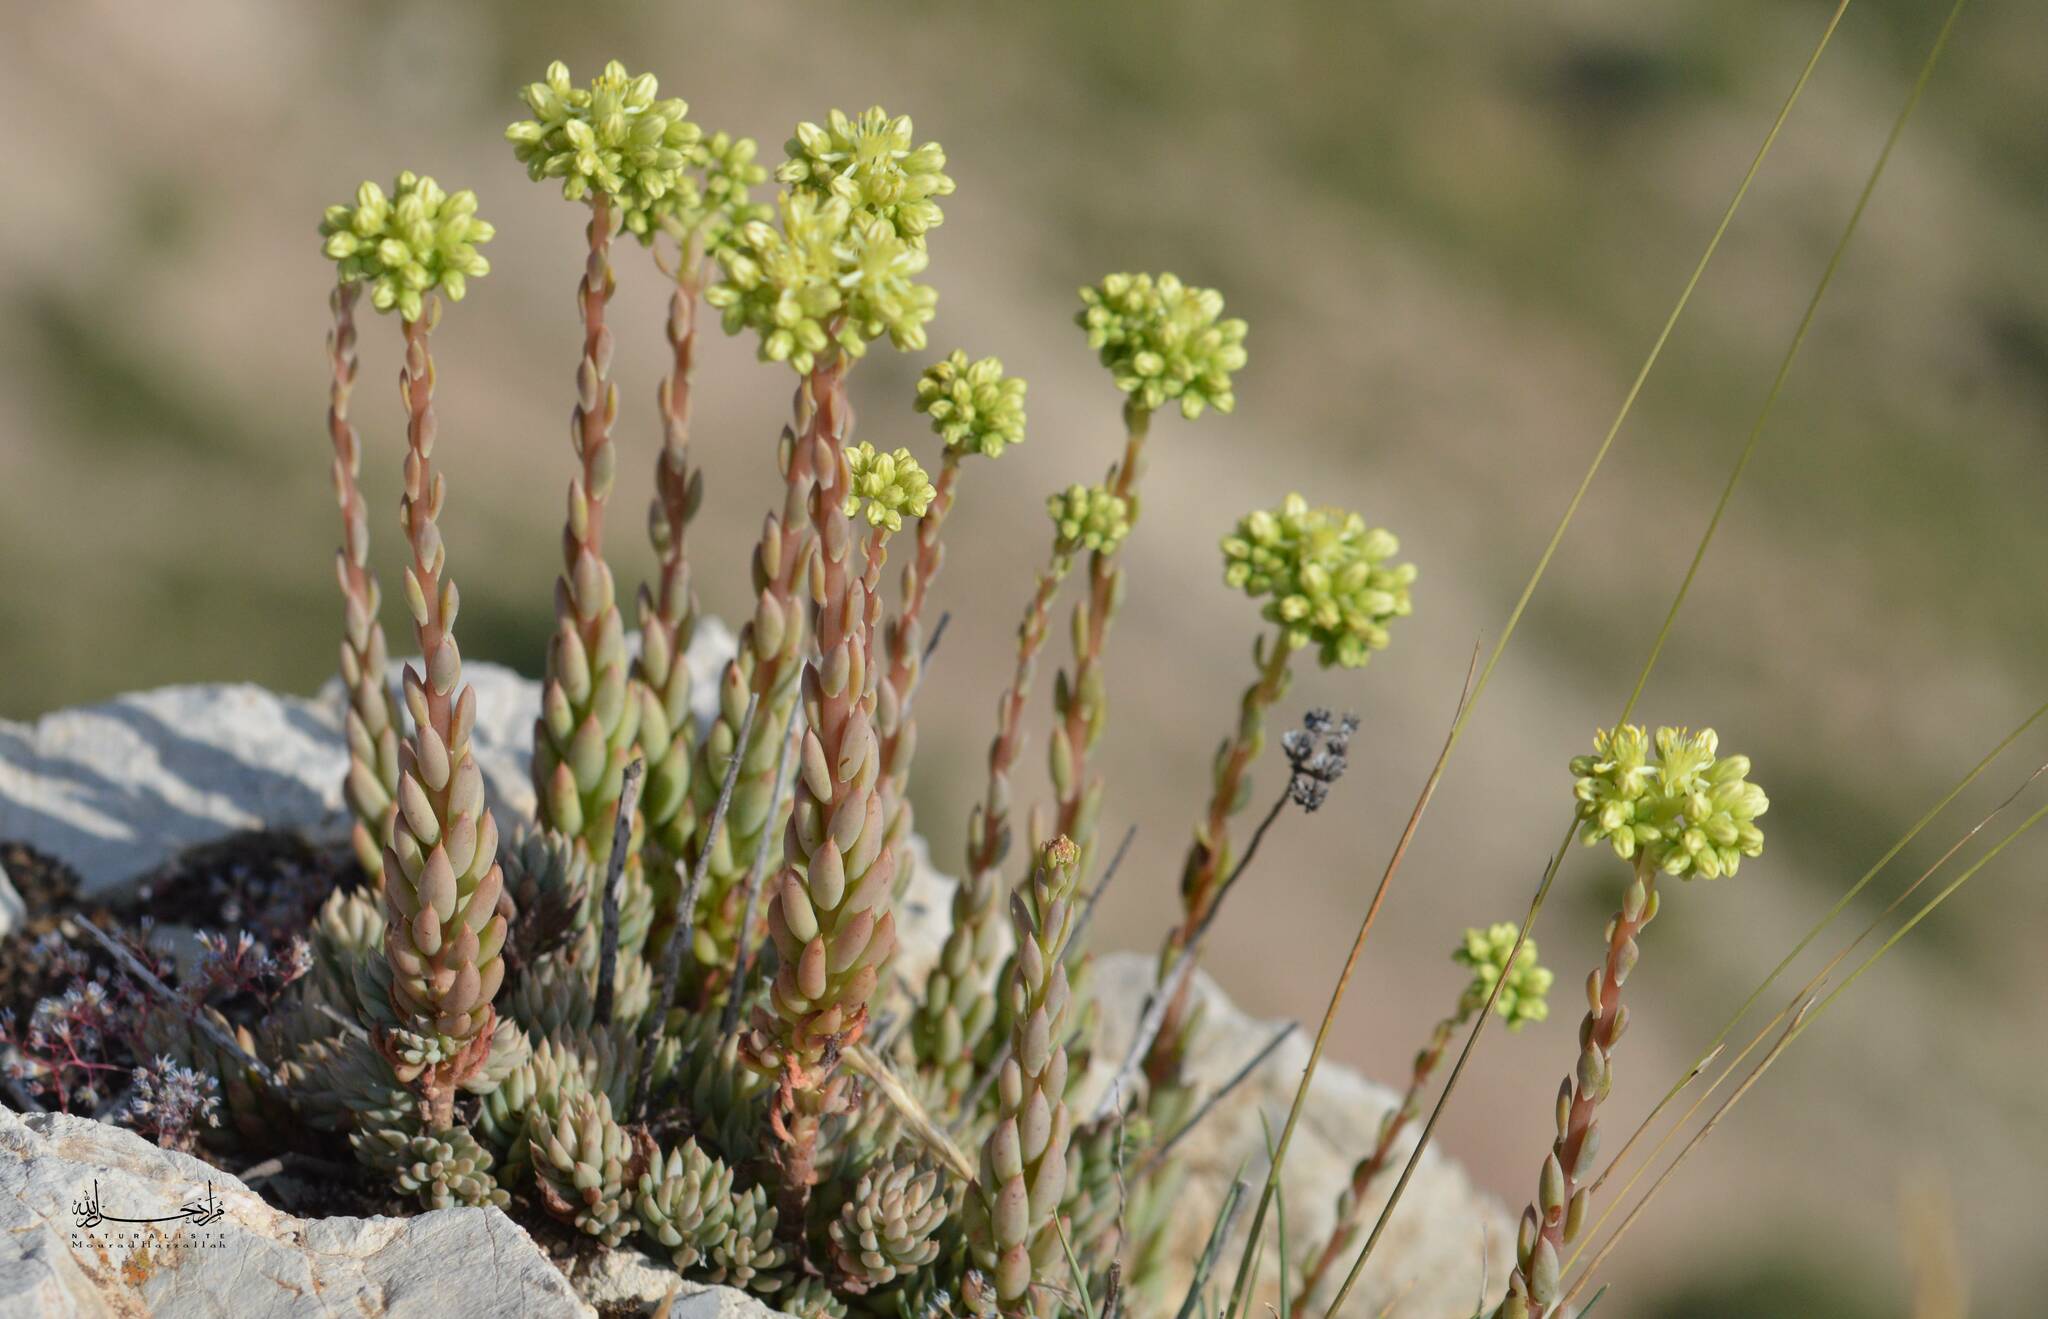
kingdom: Plantae
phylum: Tracheophyta
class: Magnoliopsida
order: Saxifragales
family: Crassulaceae
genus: Petrosedum
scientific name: Petrosedum sediforme
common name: Pale stonecrop
